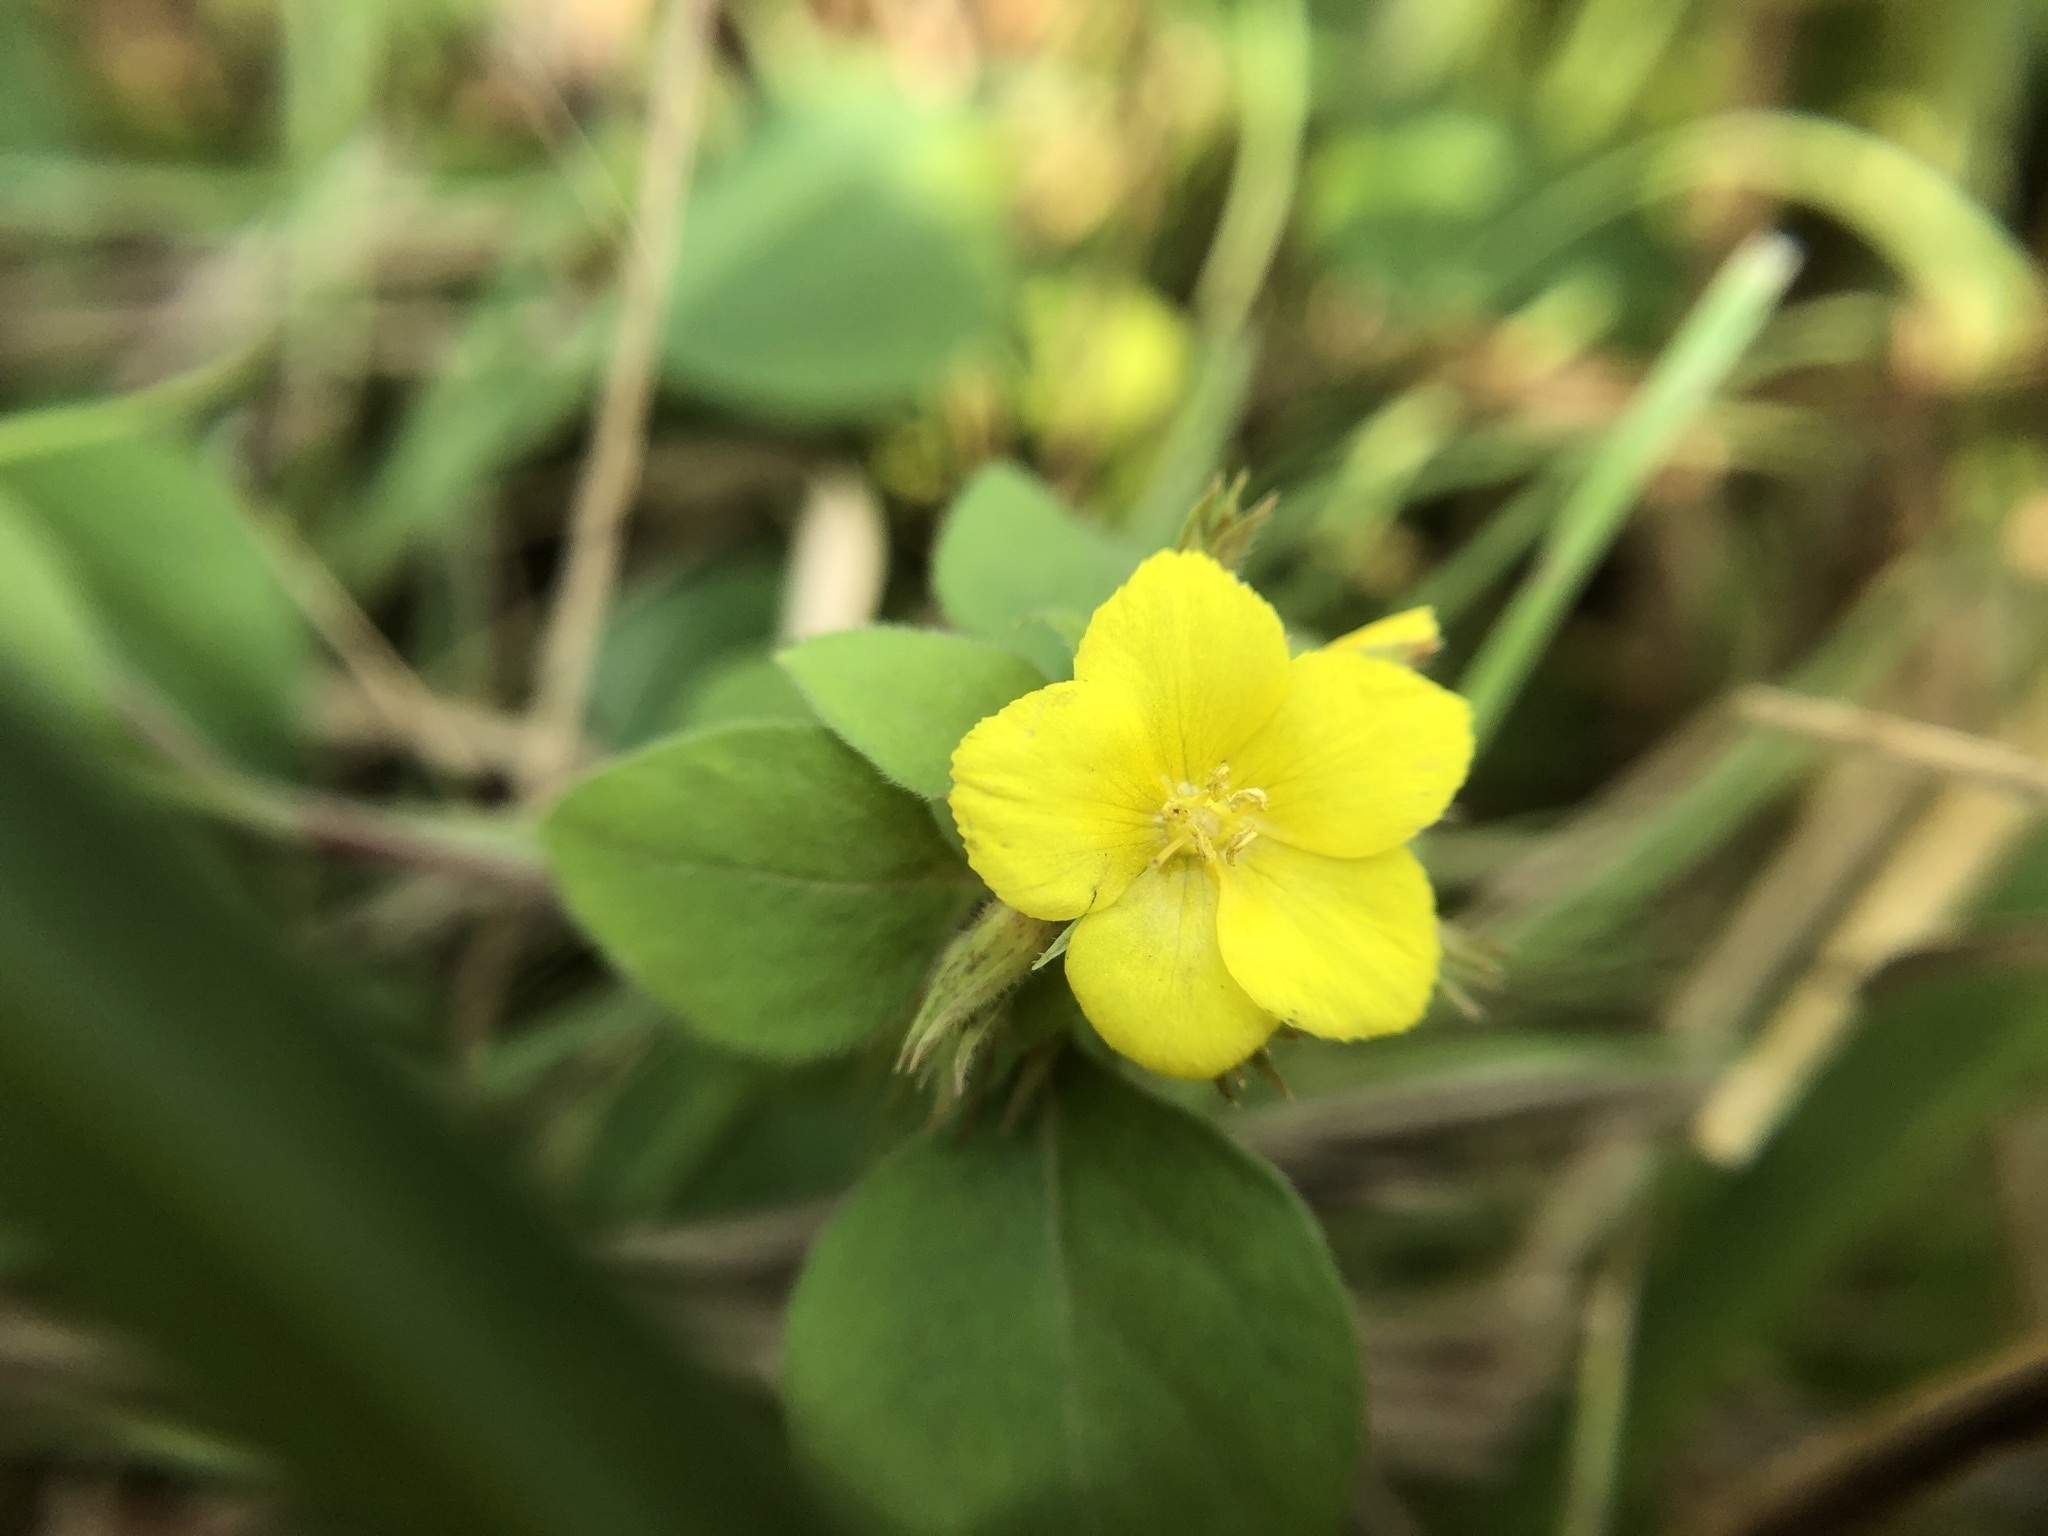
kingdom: Plantae
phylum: Tracheophyta
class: Magnoliopsida
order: Ericales
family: Primulaceae
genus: Lysimachia
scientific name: Lysimachia remota
